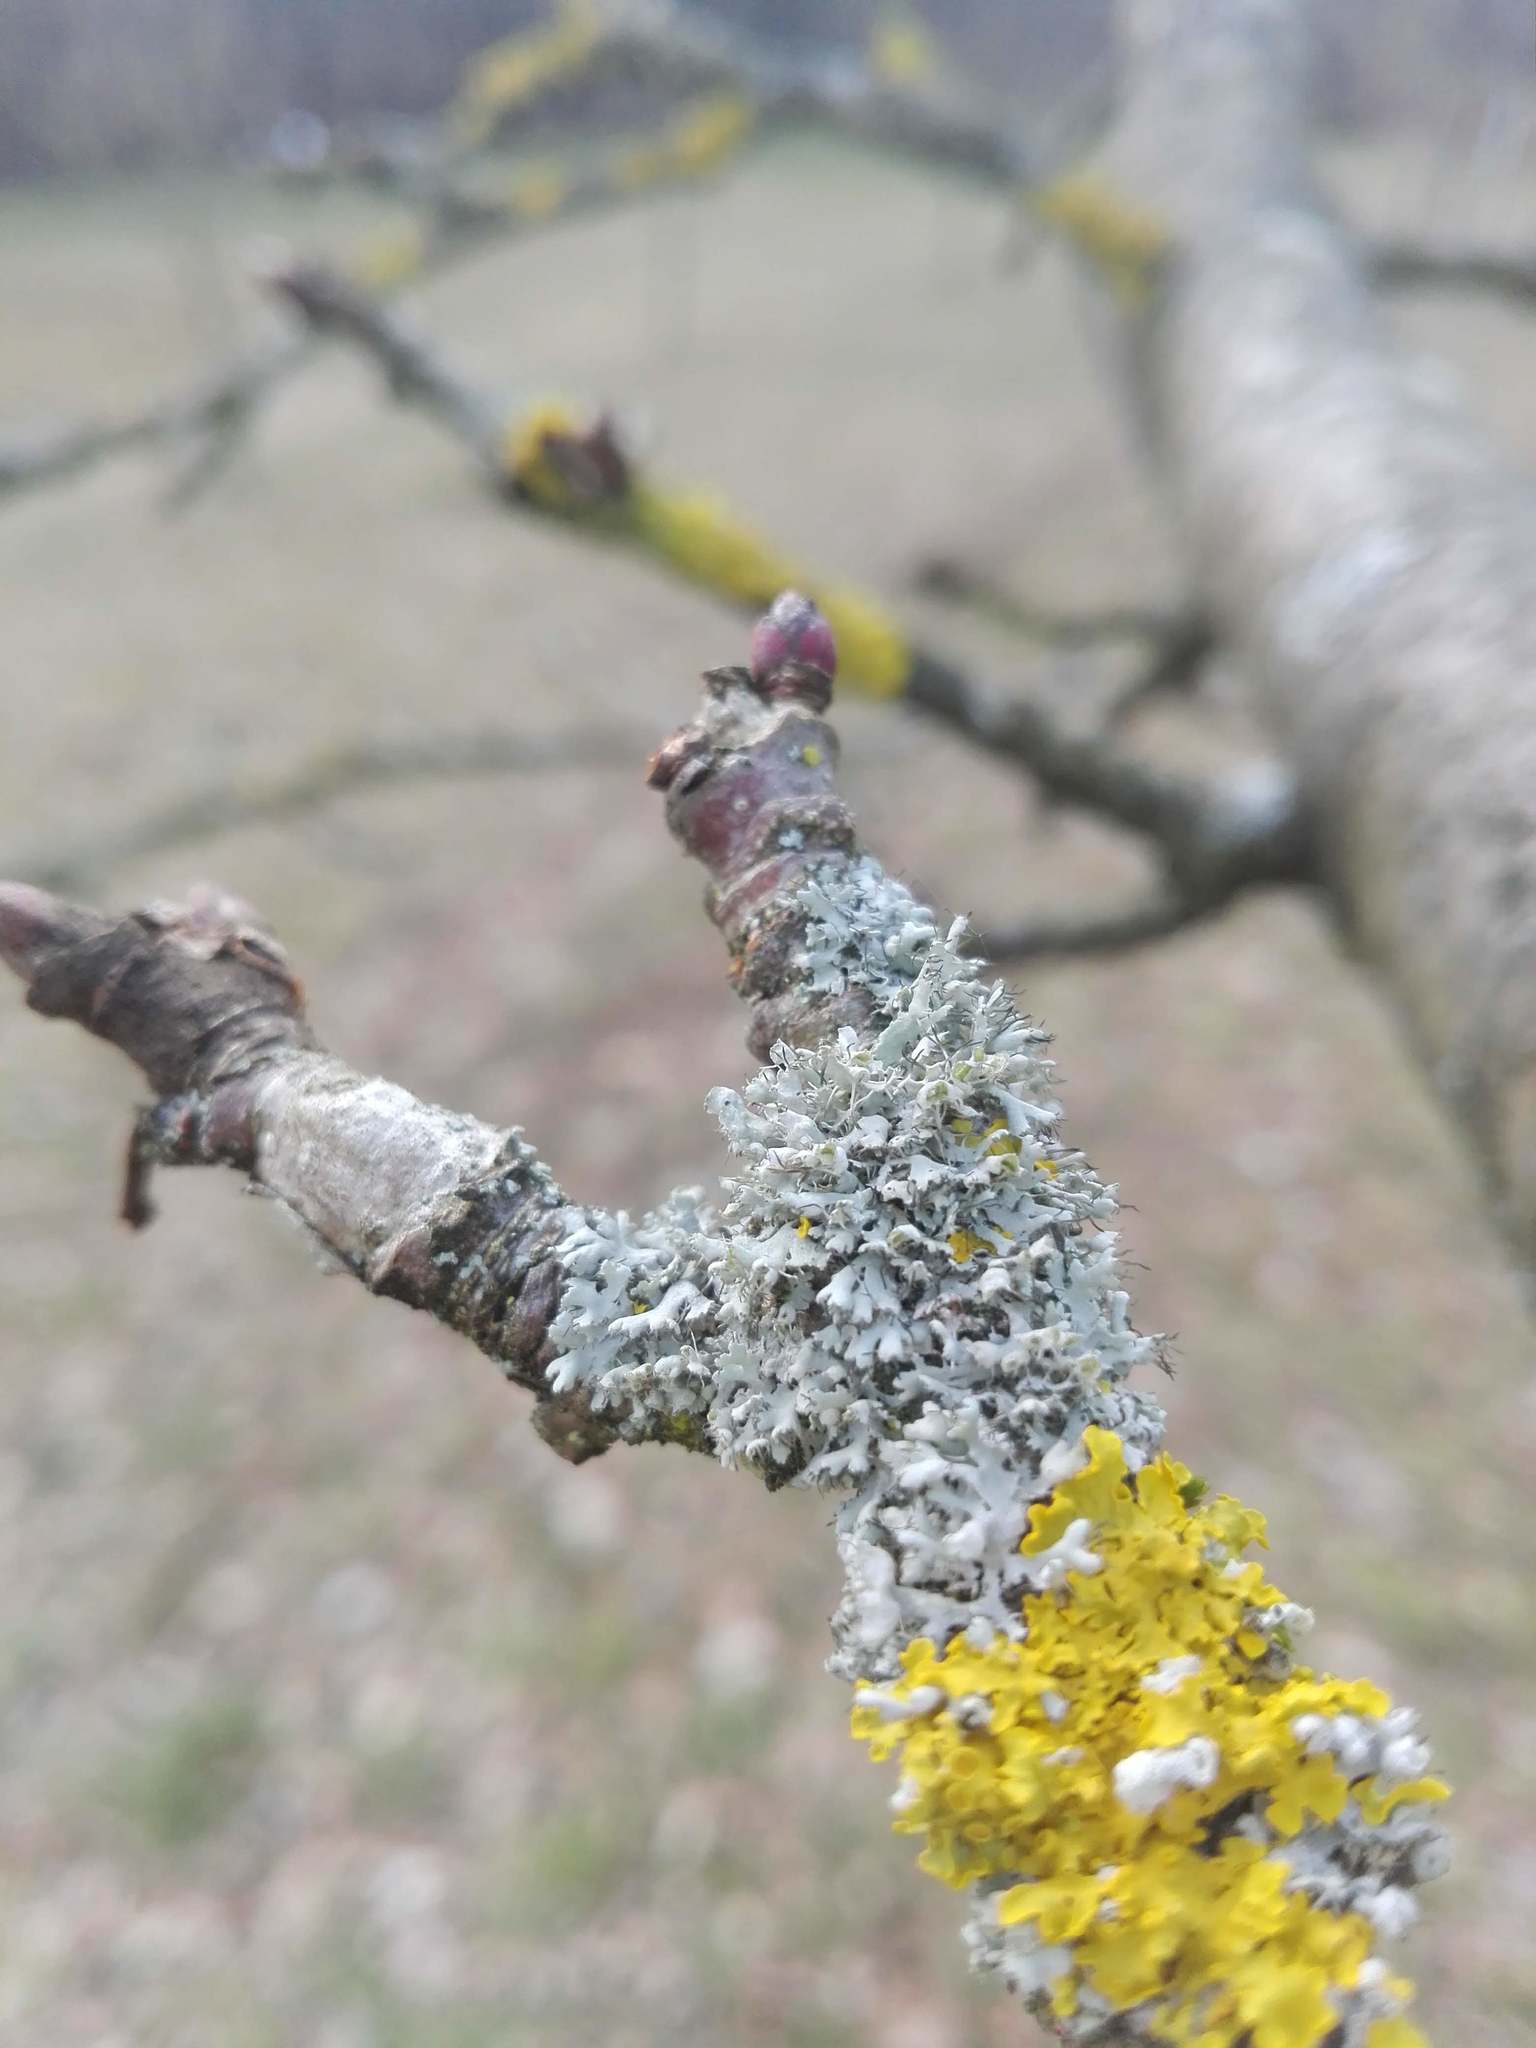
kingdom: Fungi
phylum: Ascomycota
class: Lecanoromycetes
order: Caliciales
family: Physciaceae
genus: Physcia
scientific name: Physcia adscendens
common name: Hooded rosette lichen
